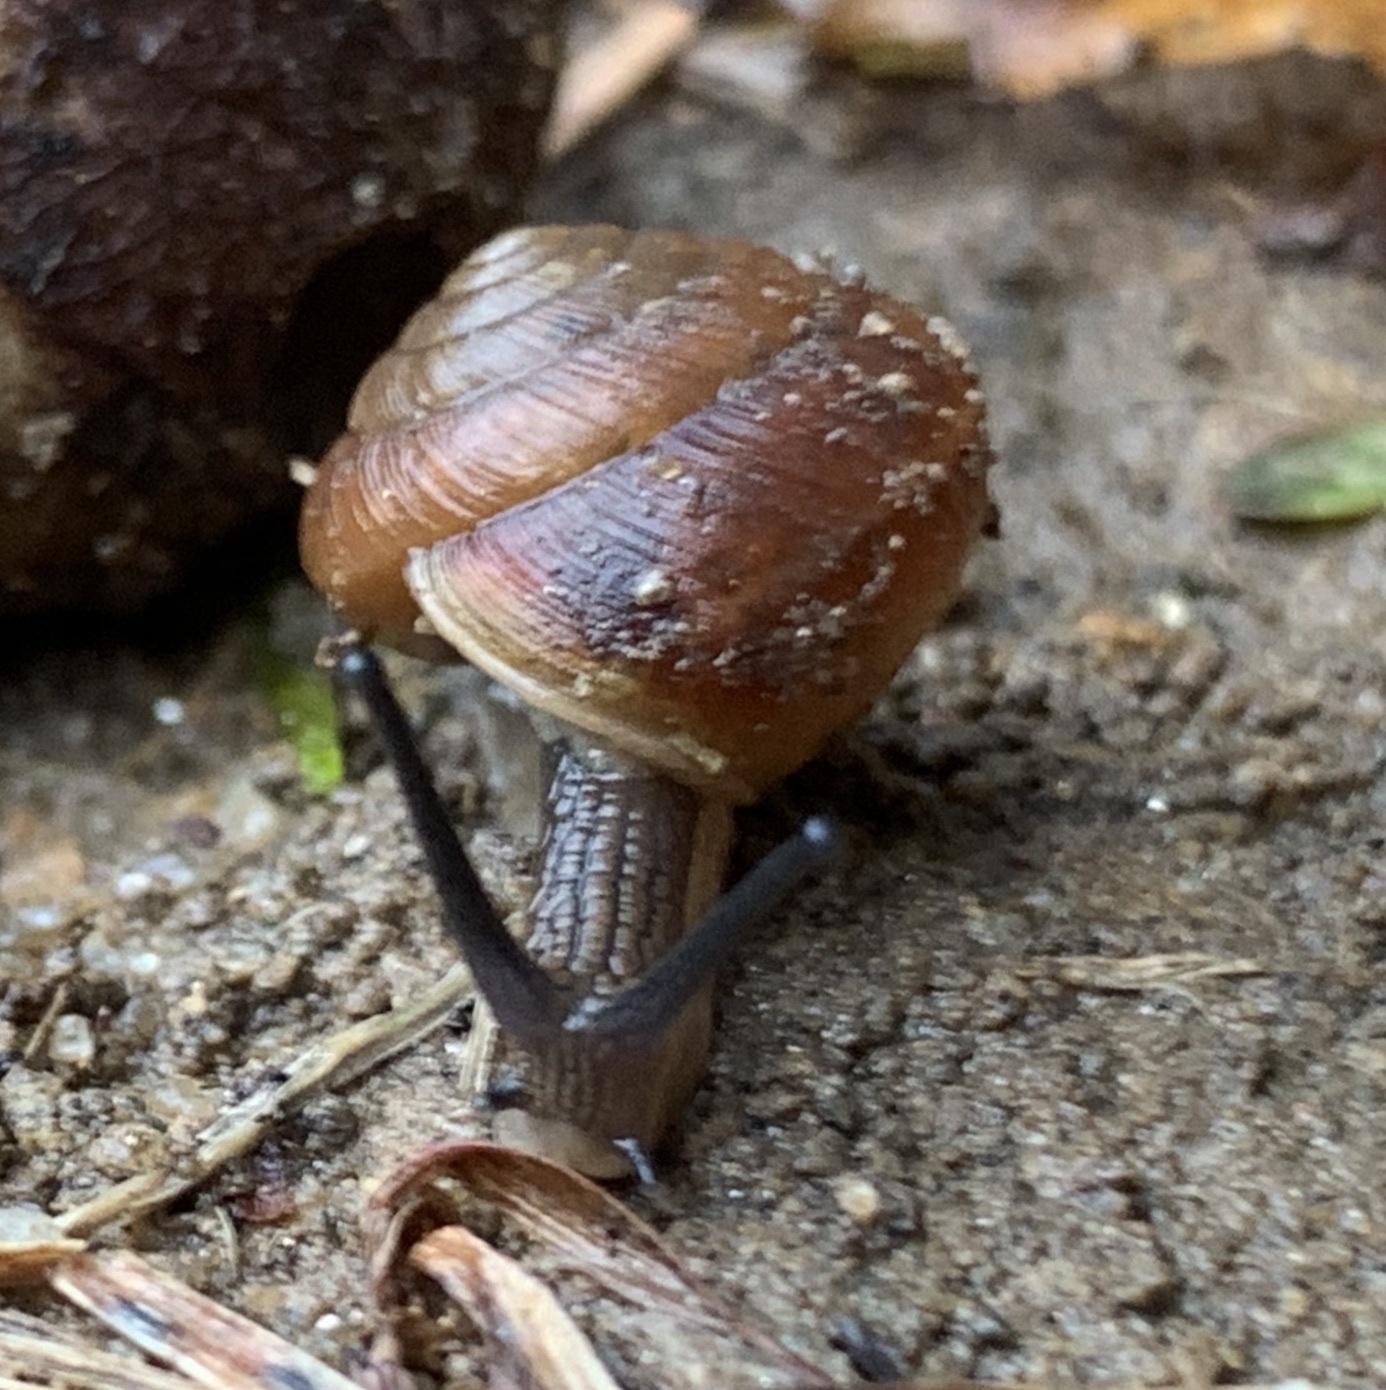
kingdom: Animalia
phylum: Mollusca
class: Gastropoda
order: Stylommatophora
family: Gastrodontidae
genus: Ventridens
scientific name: Ventridens intertextus
